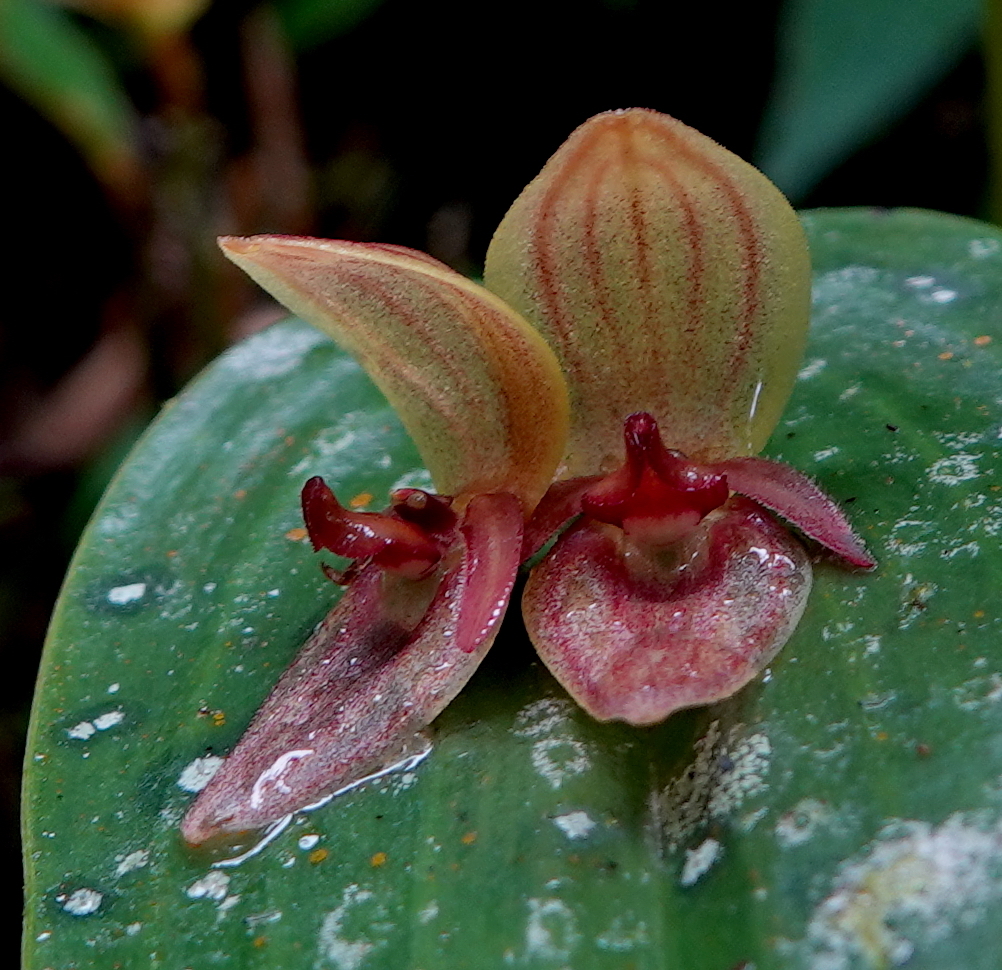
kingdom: Plantae
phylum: Tracheophyta
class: Liliopsida
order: Asparagales
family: Orchidaceae
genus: Pleurothallis
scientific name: Pleurothallis siphoglossa
